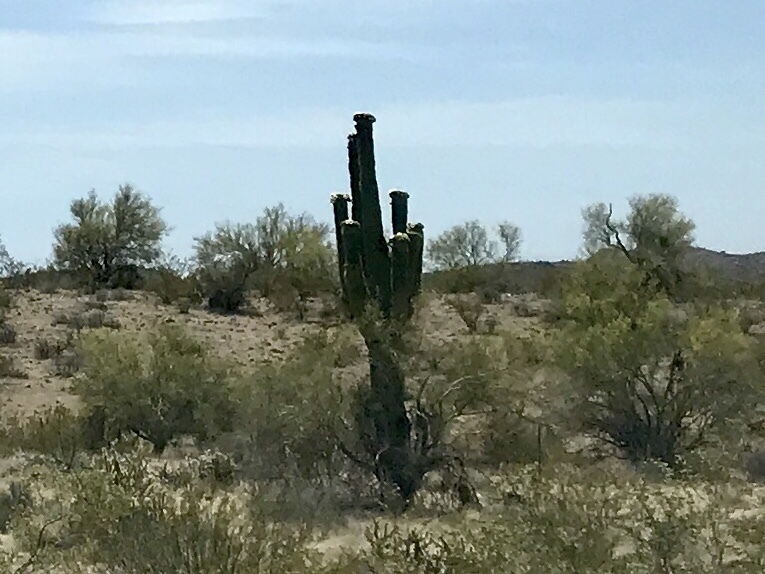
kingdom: Plantae
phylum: Tracheophyta
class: Magnoliopsida
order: Caryophyllales
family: Cactaceae
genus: Carnegiea
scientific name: Carnegiea gigantea
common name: Saguaro
